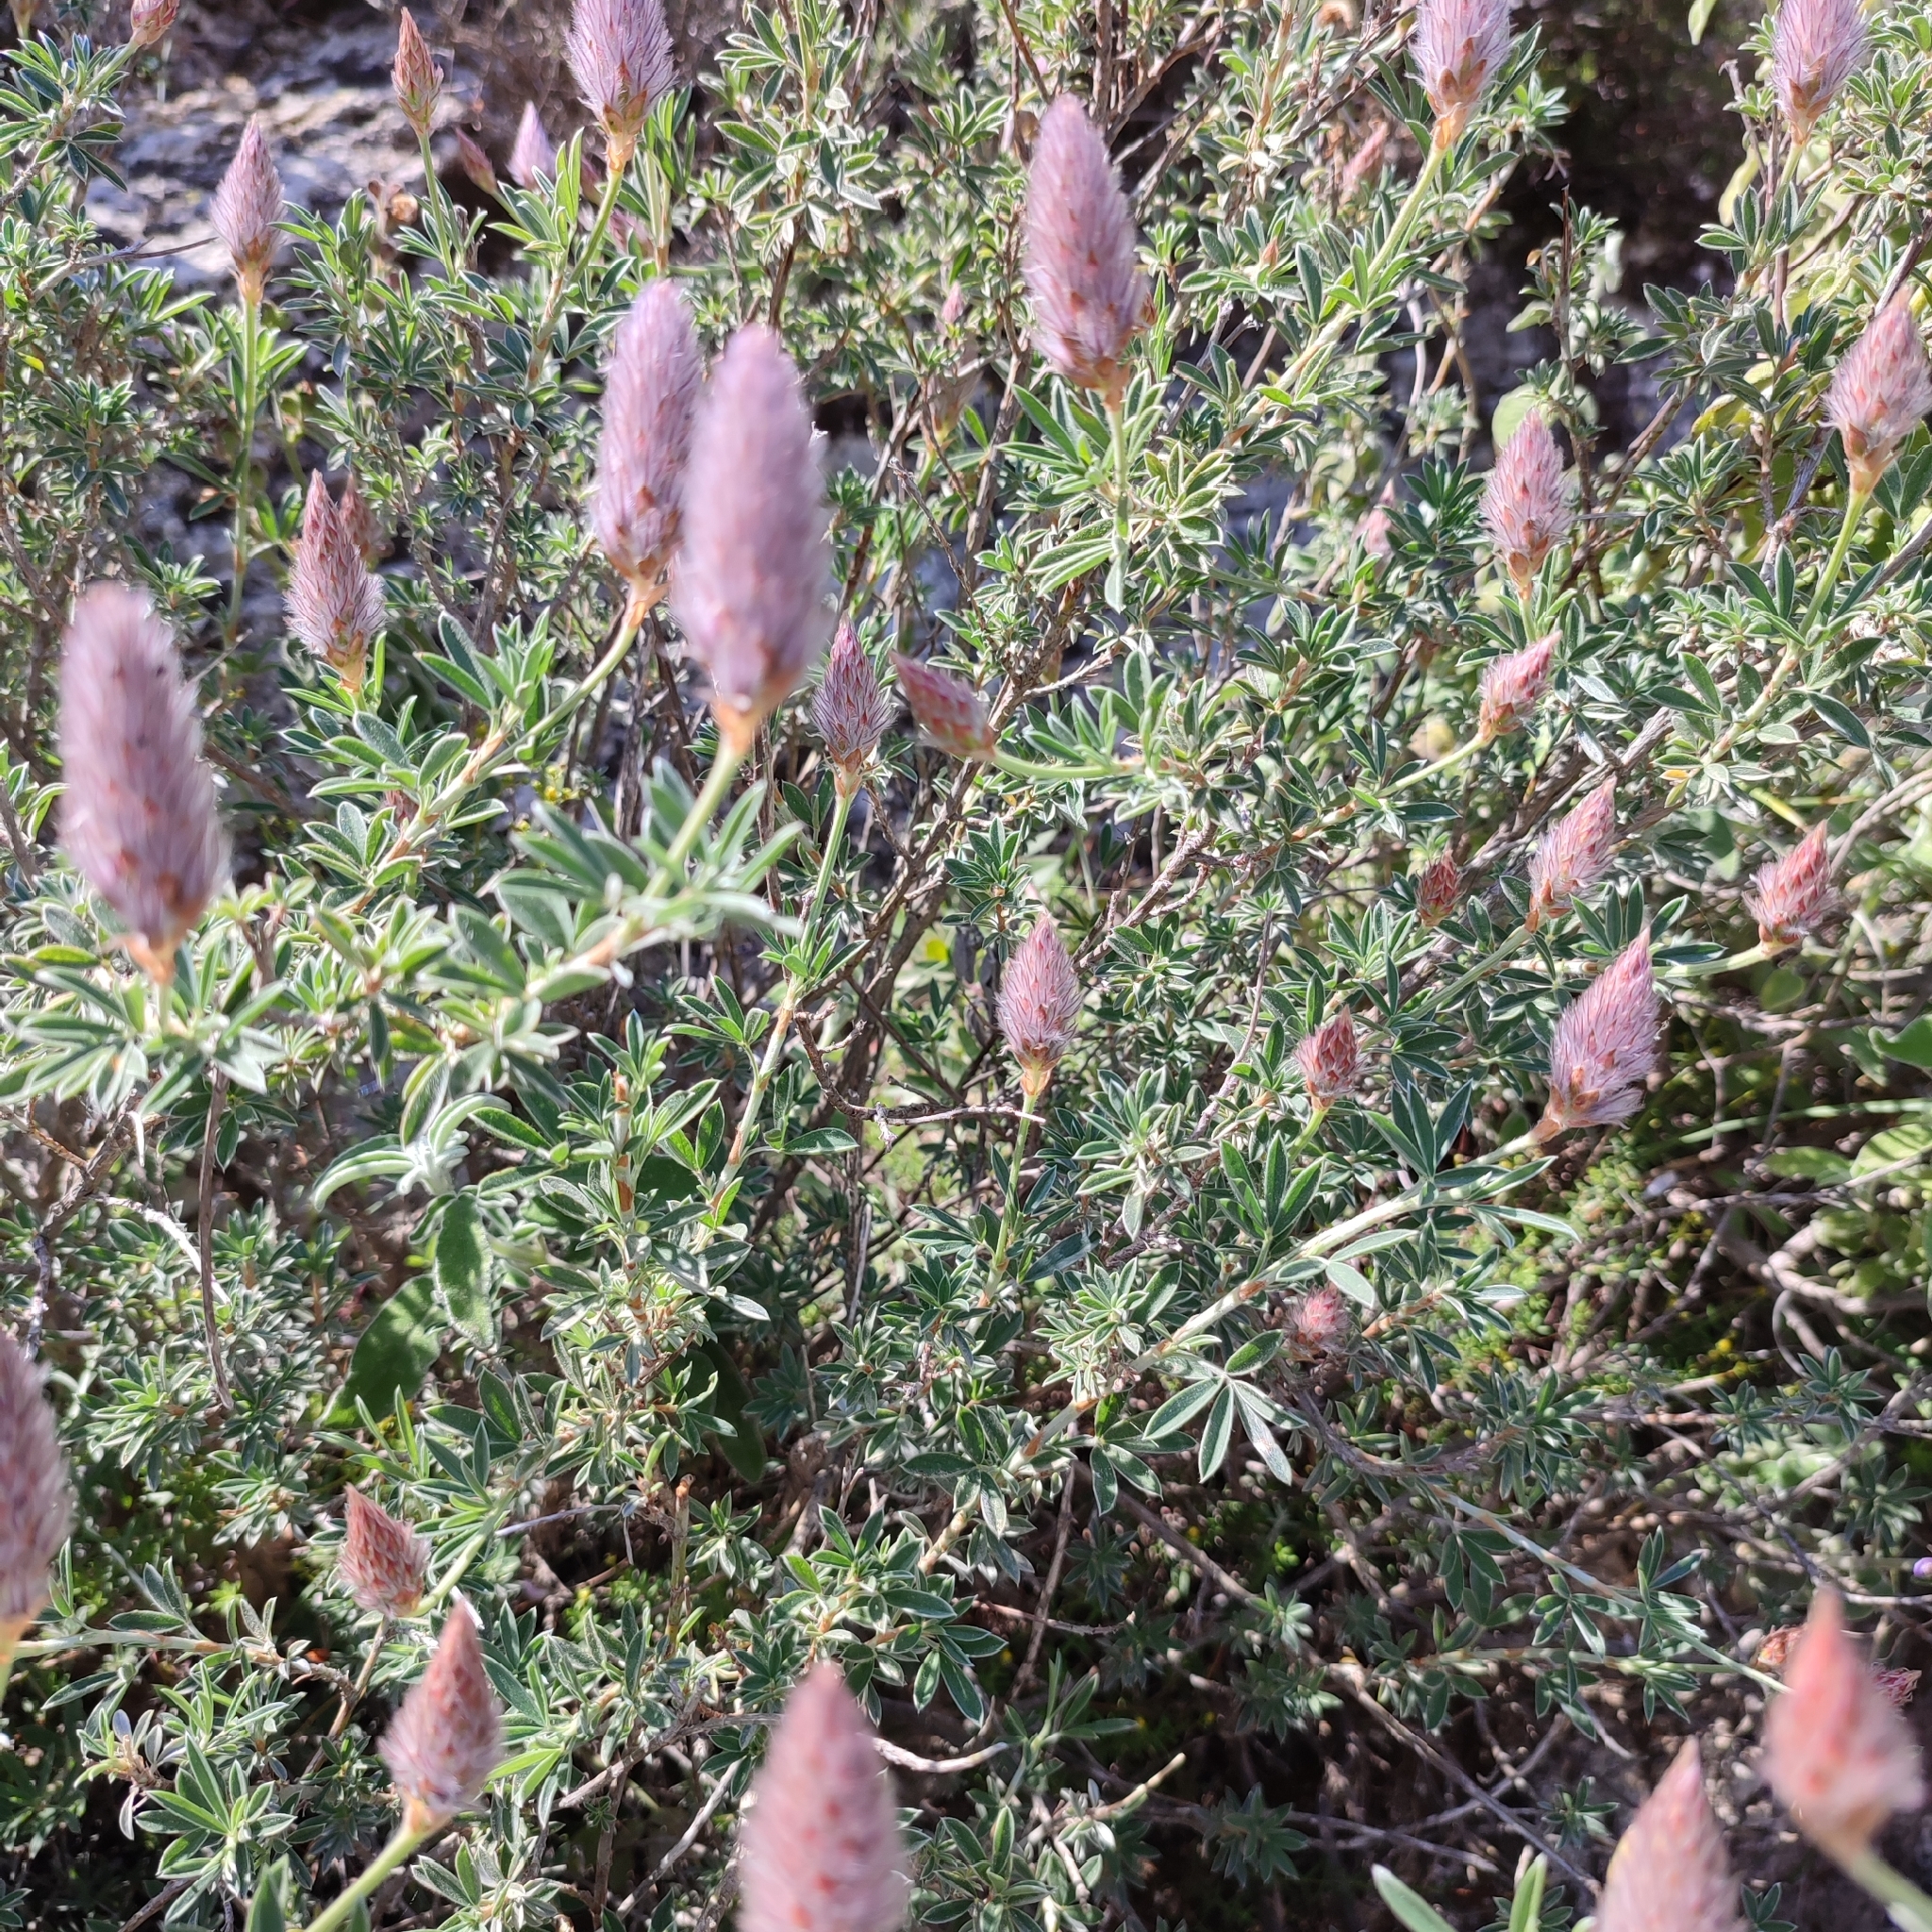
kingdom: Plantae
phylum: Tracheophyta
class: Magnoliopsida
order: Fabales
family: Fabaceae
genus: Ebenus
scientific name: Ebenus cretica
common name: Cretan silver bush
